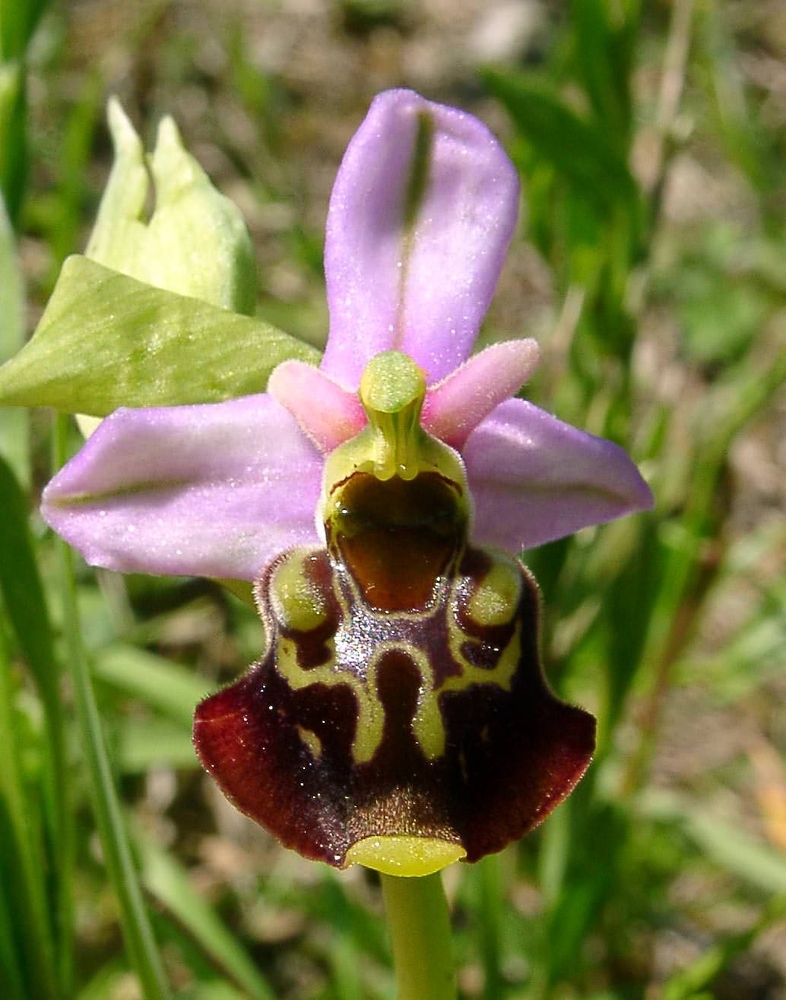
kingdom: Plantae
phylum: Tracheophyta
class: Liliopsida
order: Asparagales
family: Orchidaceae
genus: Ophrys
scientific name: Ophrys holosericea
